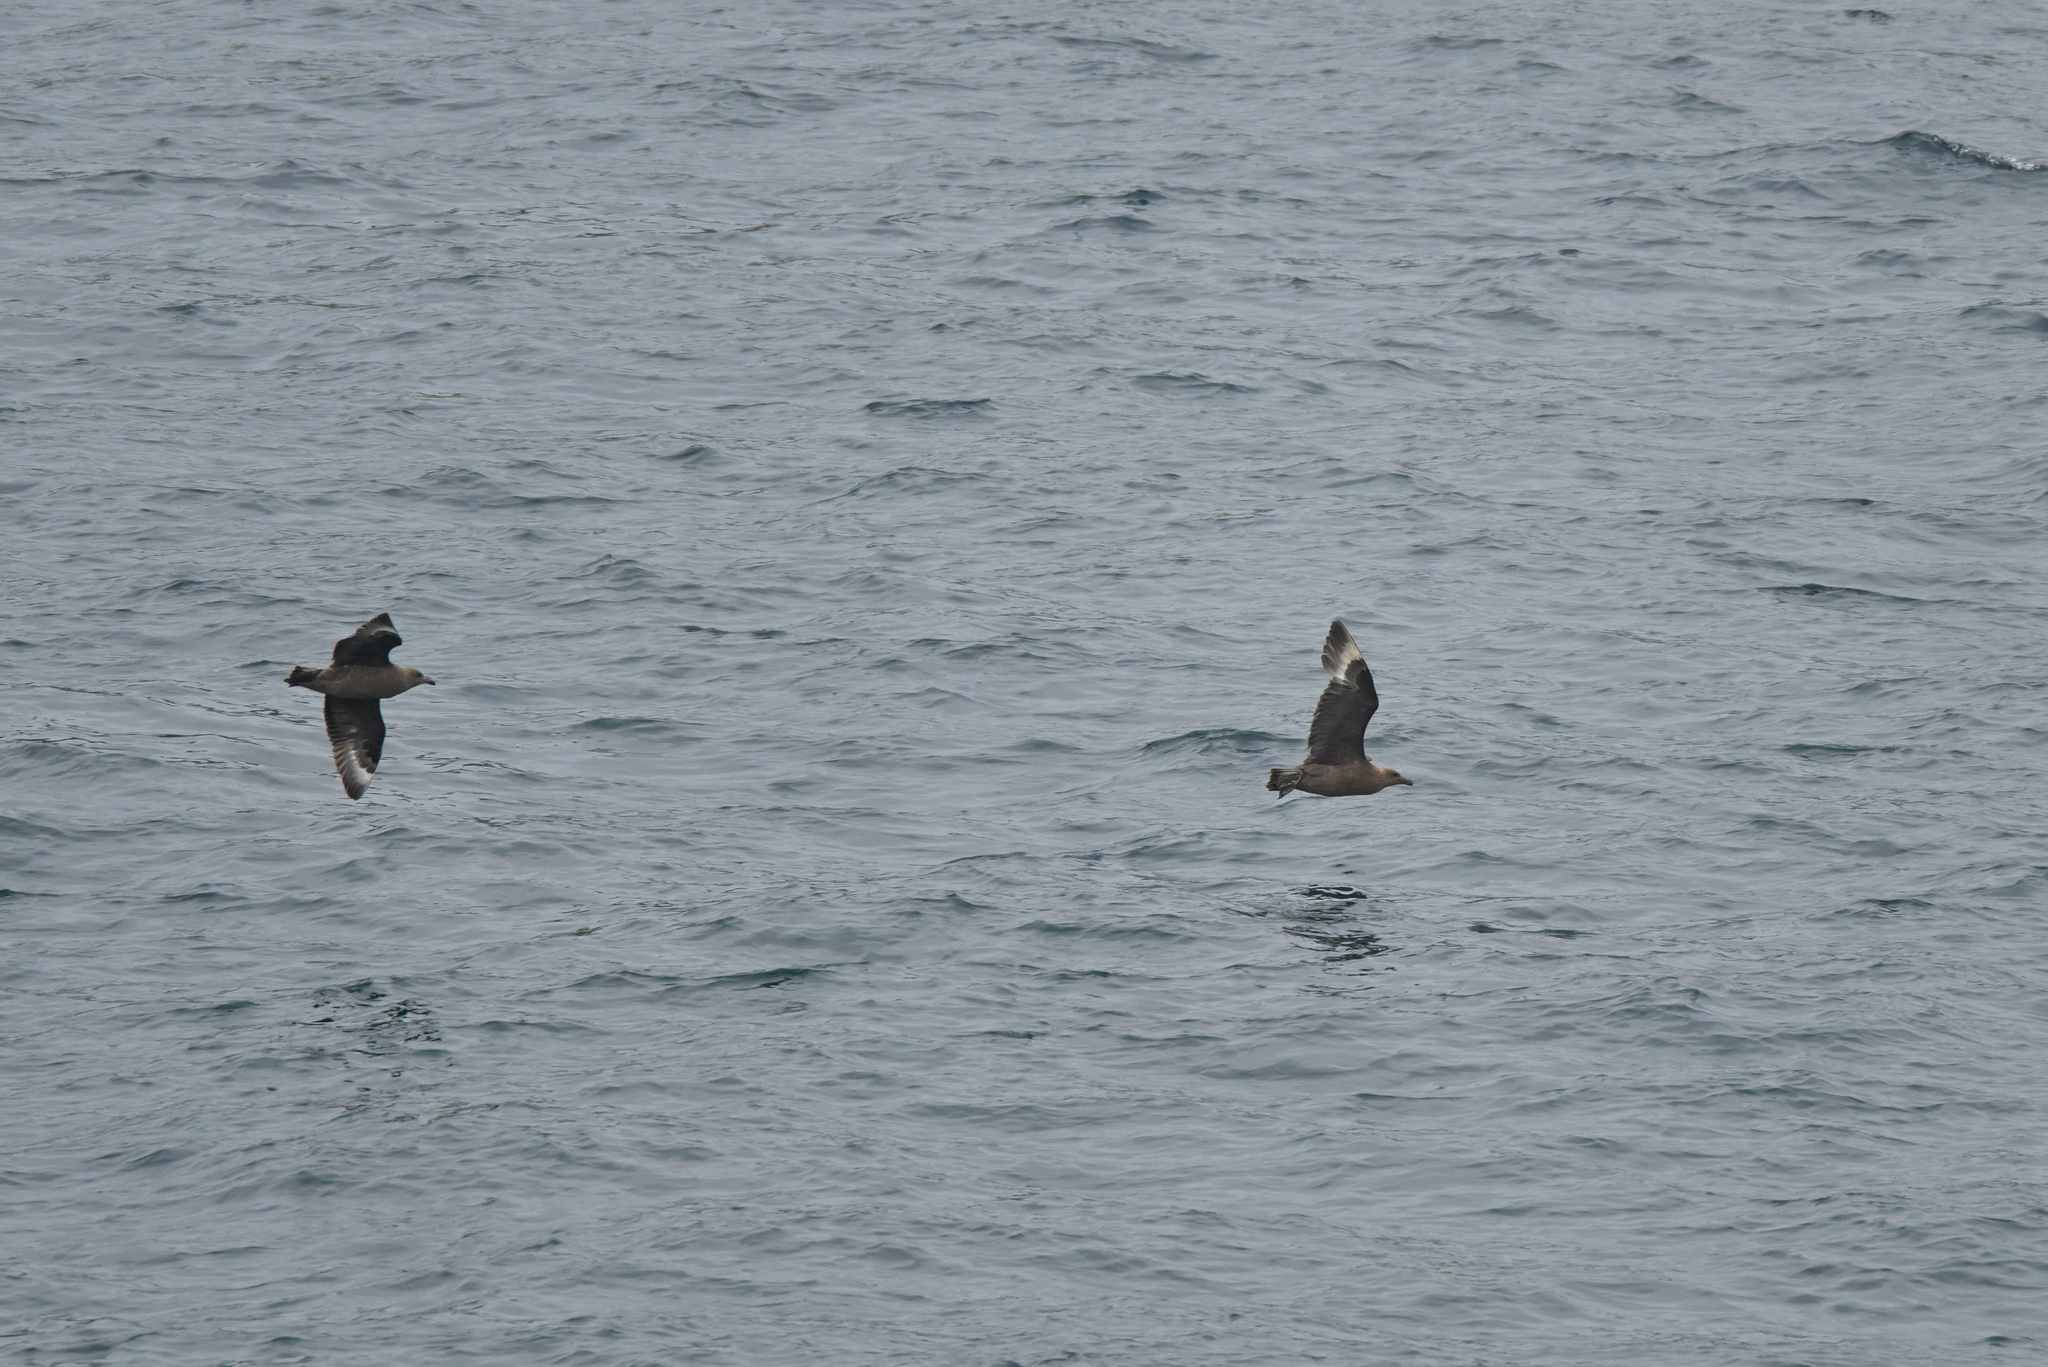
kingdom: Animalia
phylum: Chordata
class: Aves
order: Charadriiformes
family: Stercorariidae
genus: Stercorarius
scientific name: Stercorarius antarcticus
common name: Brown skua
